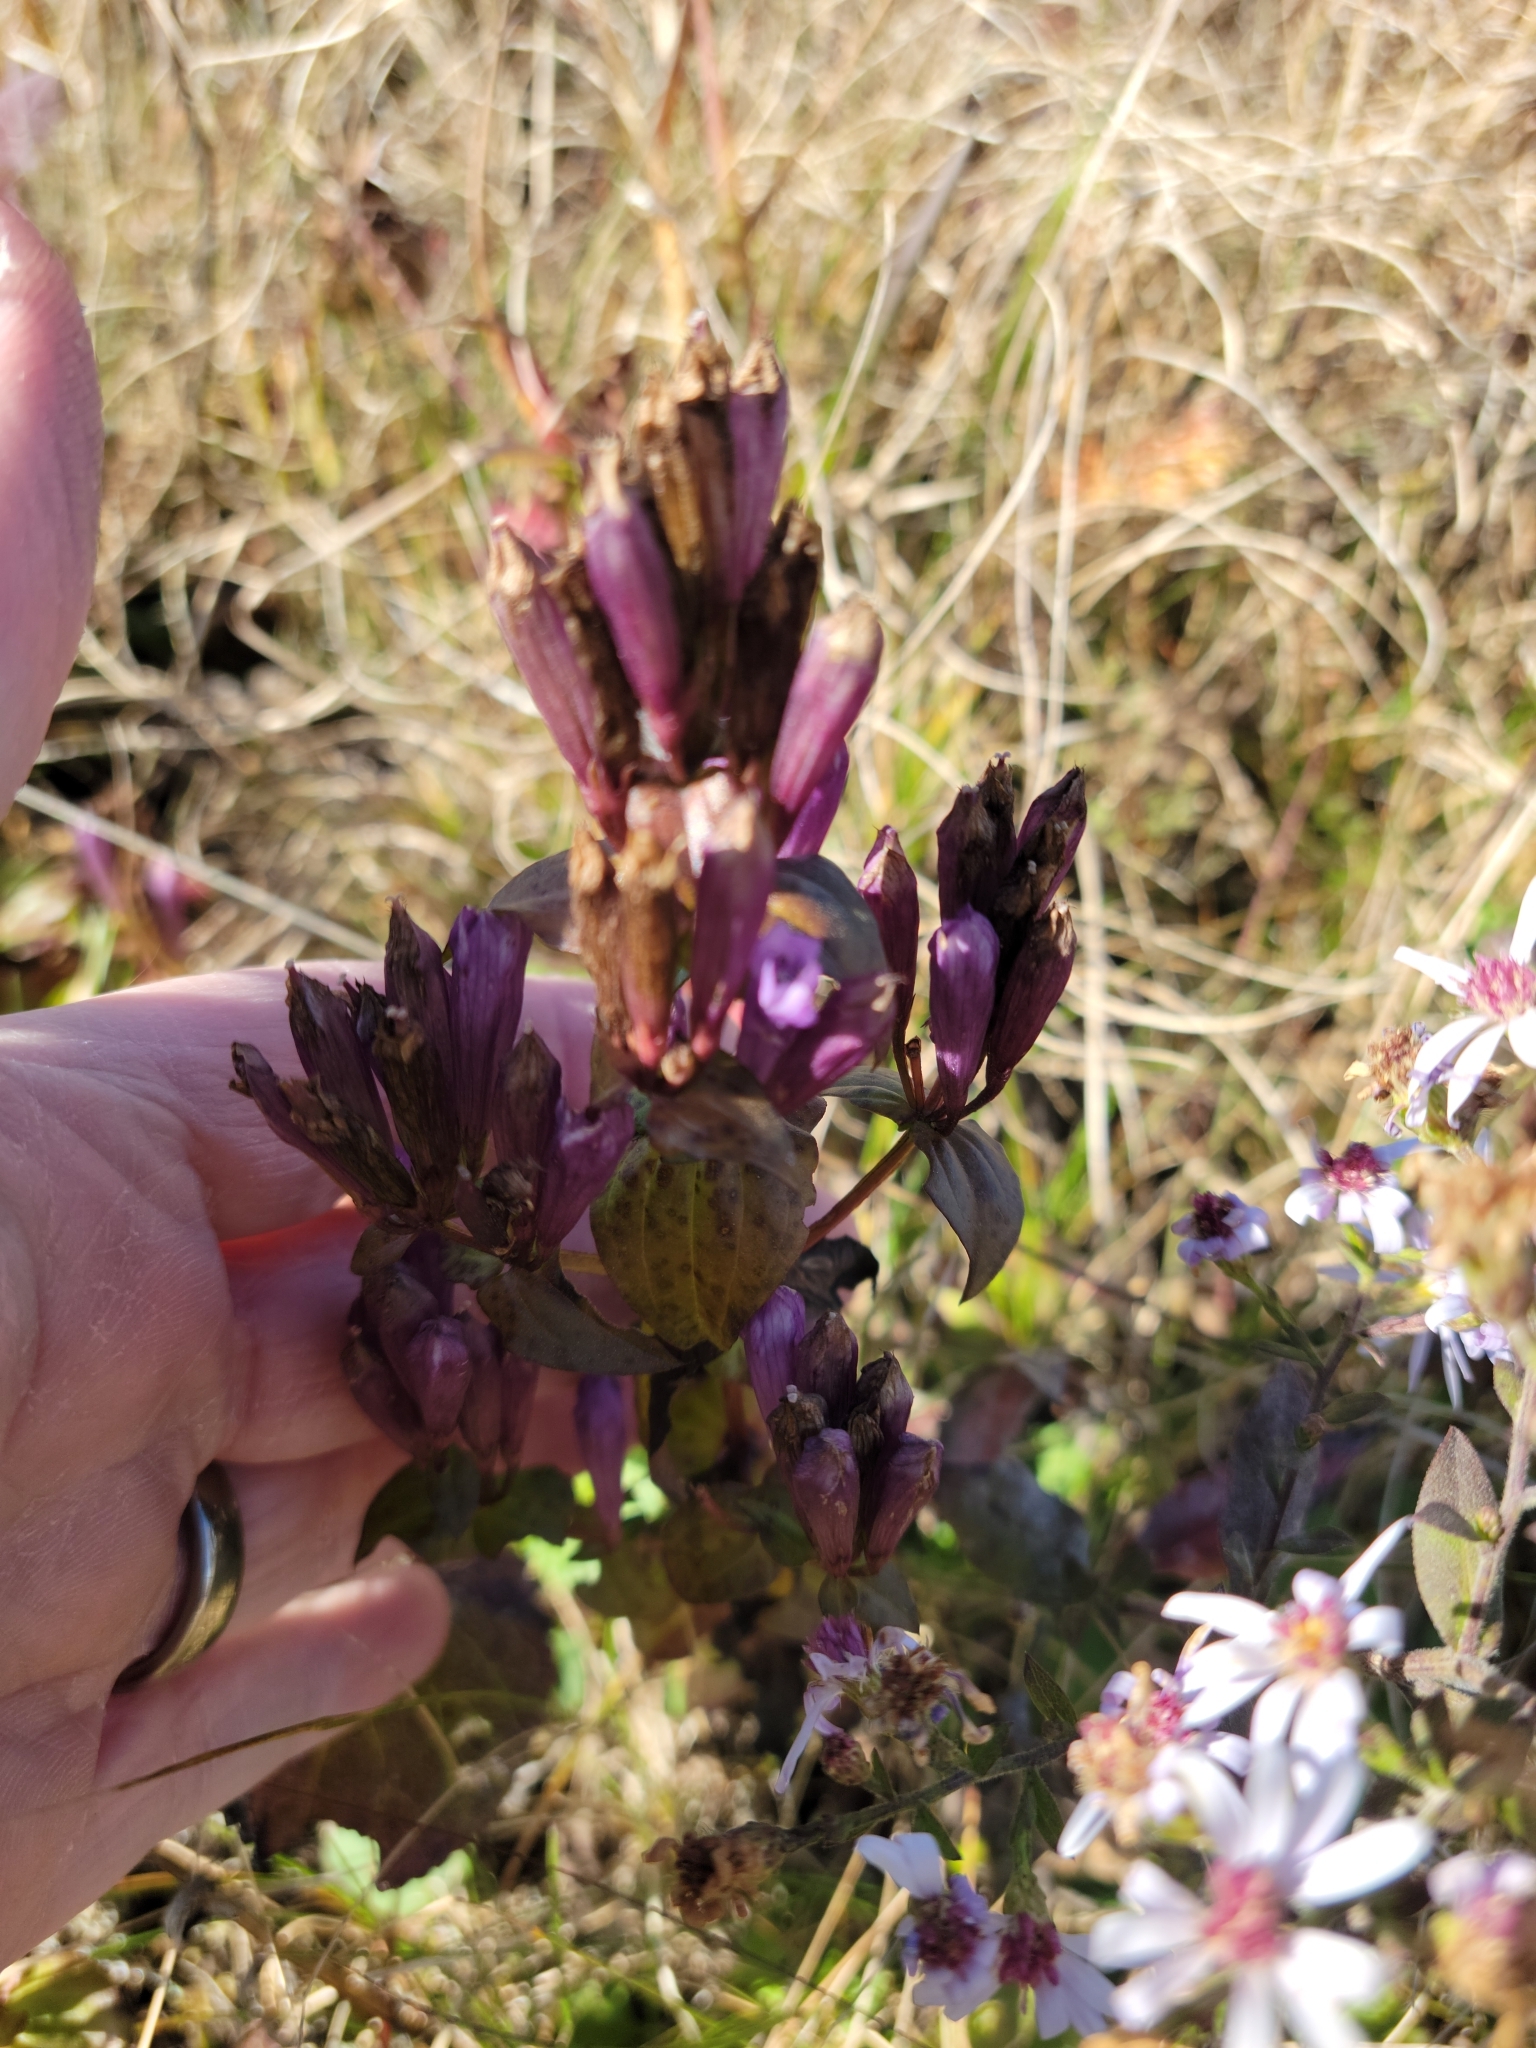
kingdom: Plantae
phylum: Tracheophyta
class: Magnoliopsida
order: Gentianales
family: Gentianaceae
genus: Gentianella
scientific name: Gentianella quinquefolia
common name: Agueweed
